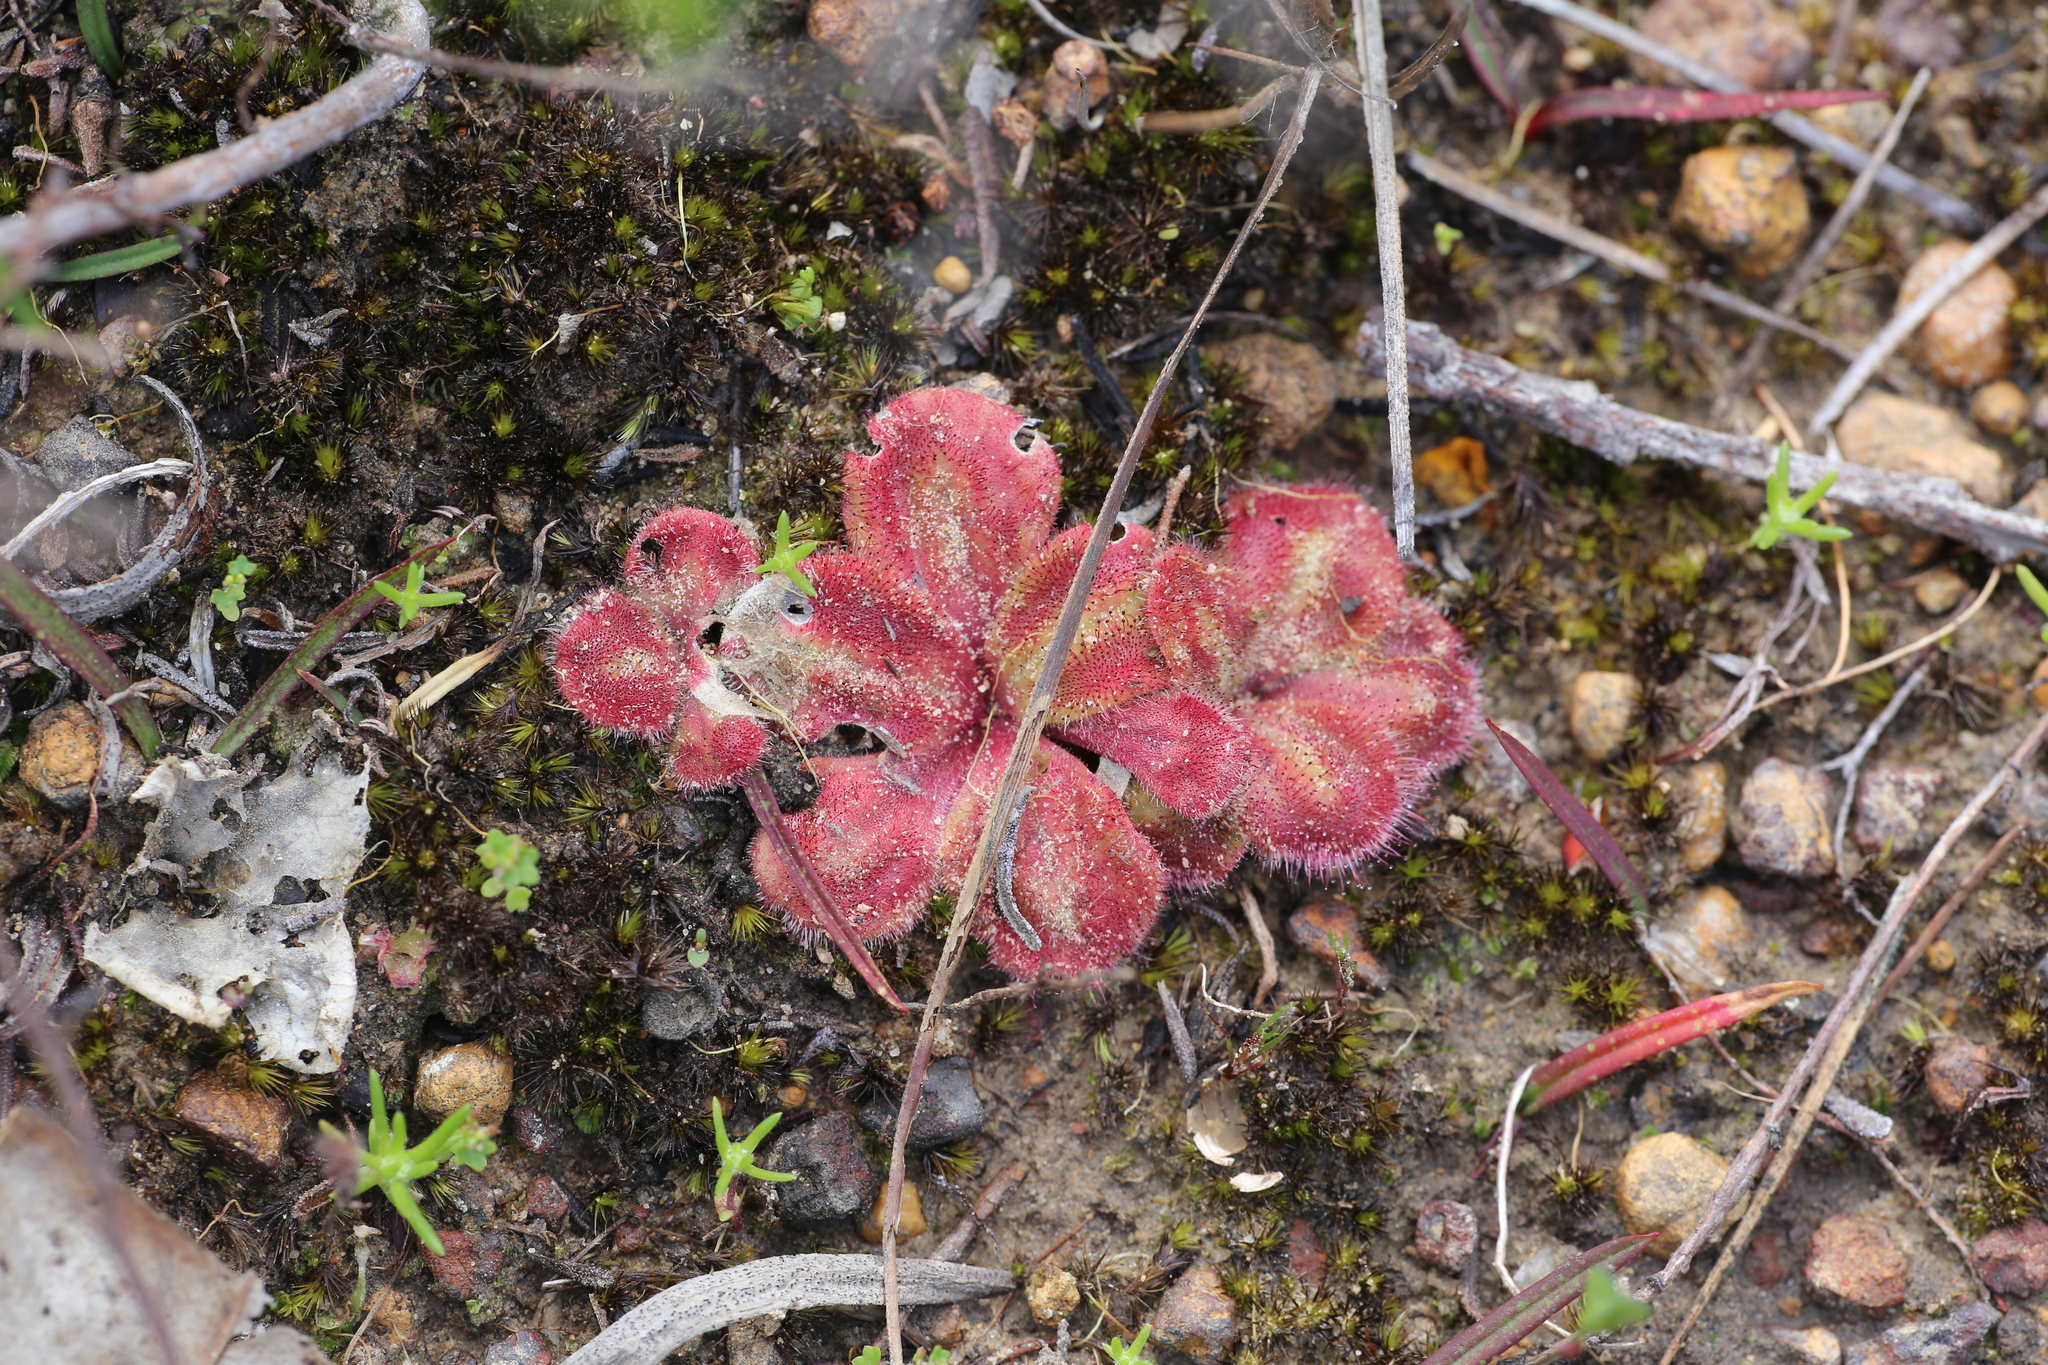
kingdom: Plantae
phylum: Tracheophyta
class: Magnoliopsida
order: Caryophyllales
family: Droseraceae
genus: Drosera
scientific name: Drosera erythrorhiza
